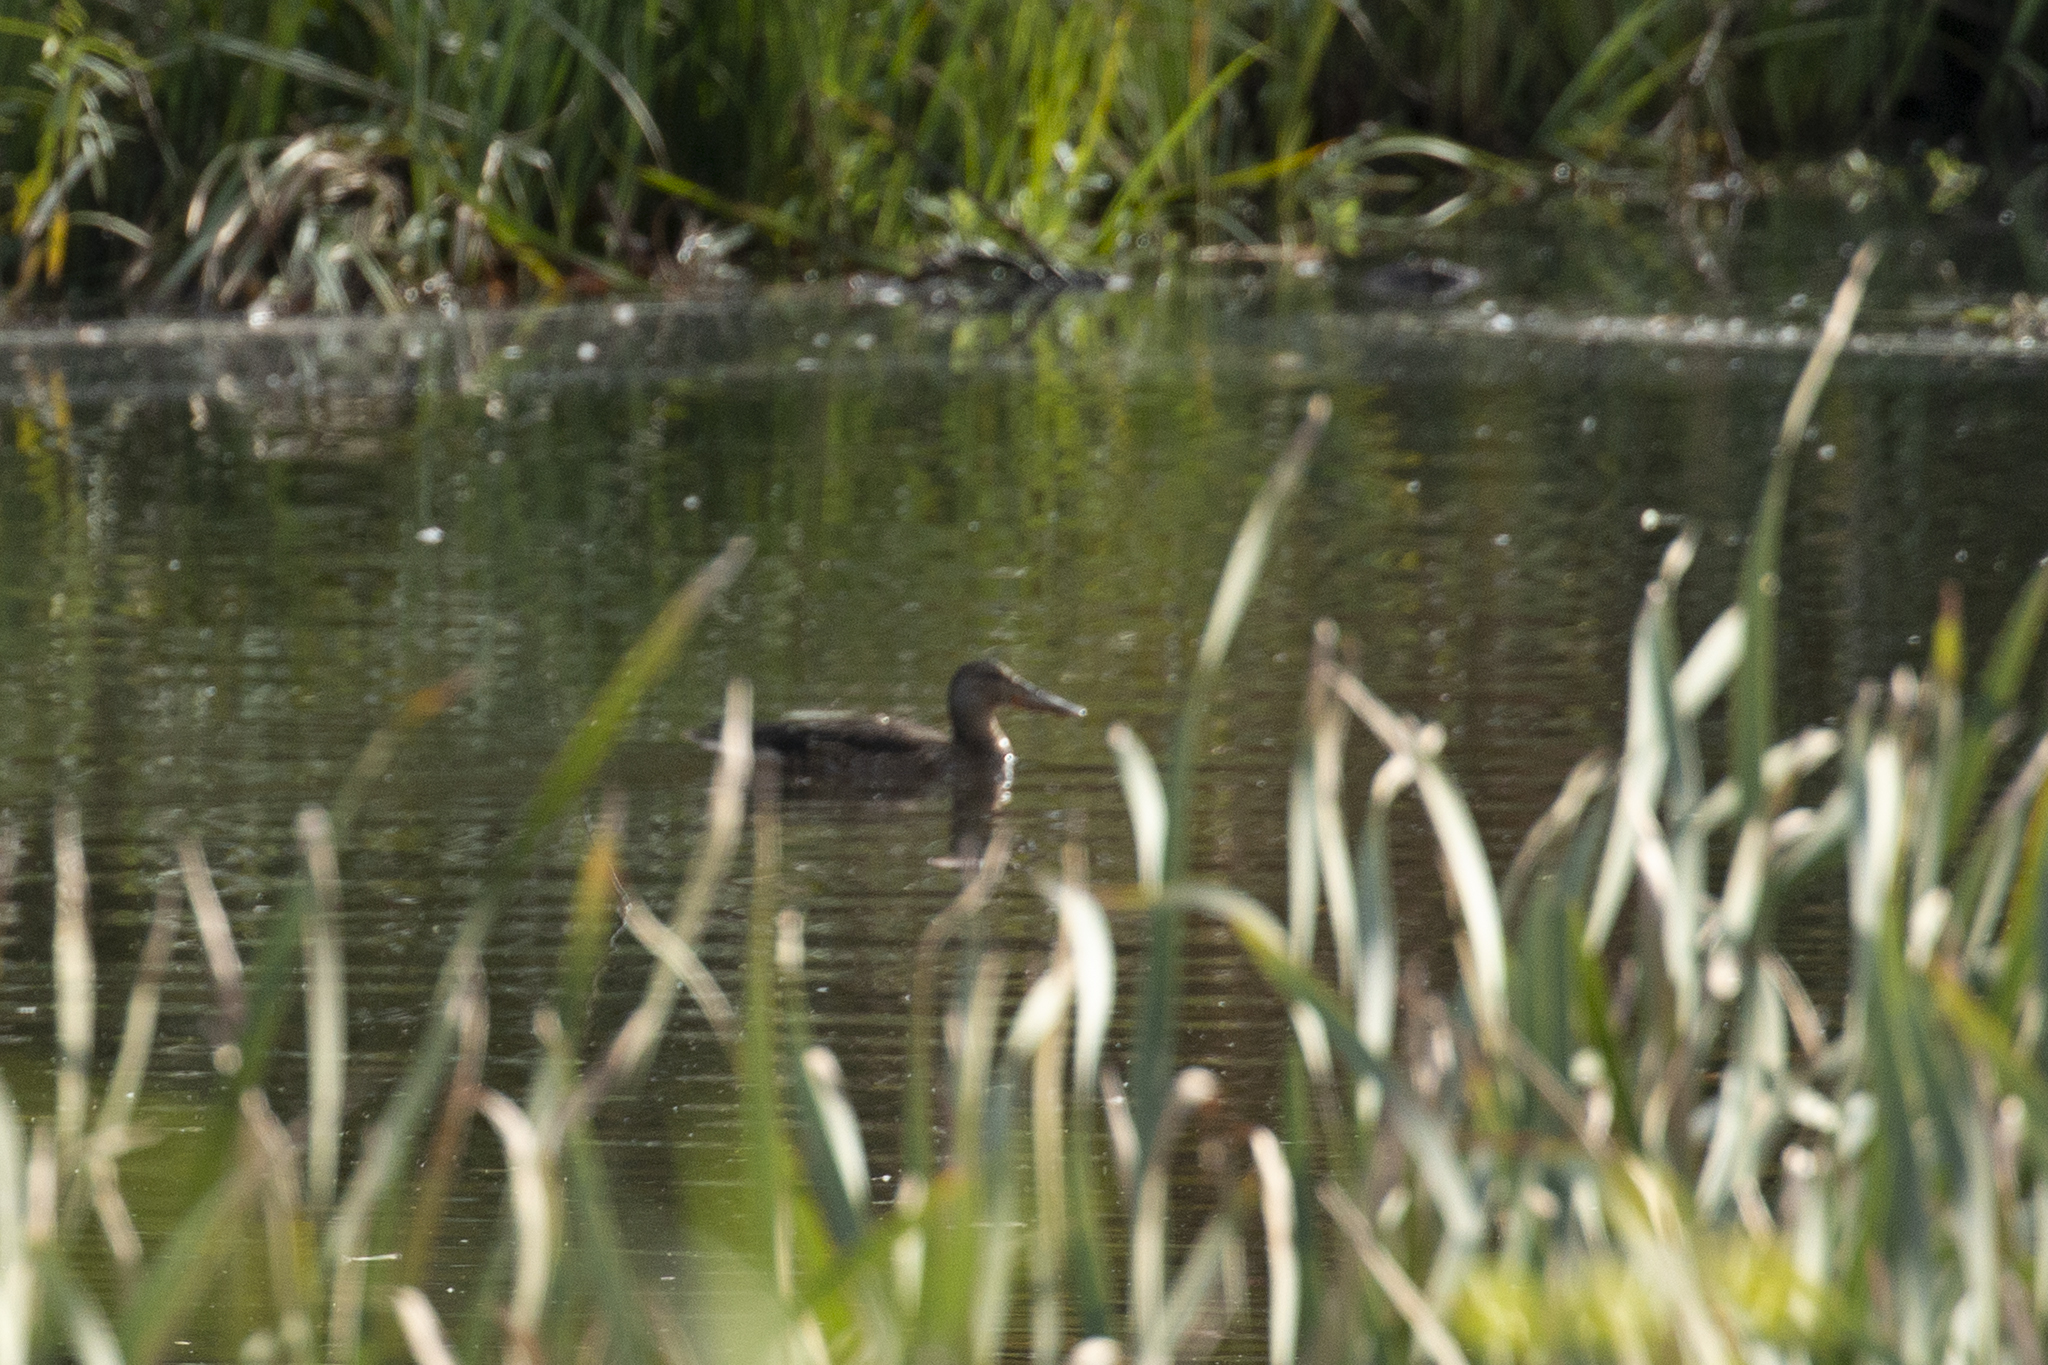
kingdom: Animalia
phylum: Chordata
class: Aves
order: Anseriformes
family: Anatidae
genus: Spatula
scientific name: Spatula clypeata
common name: Northern shoveler
